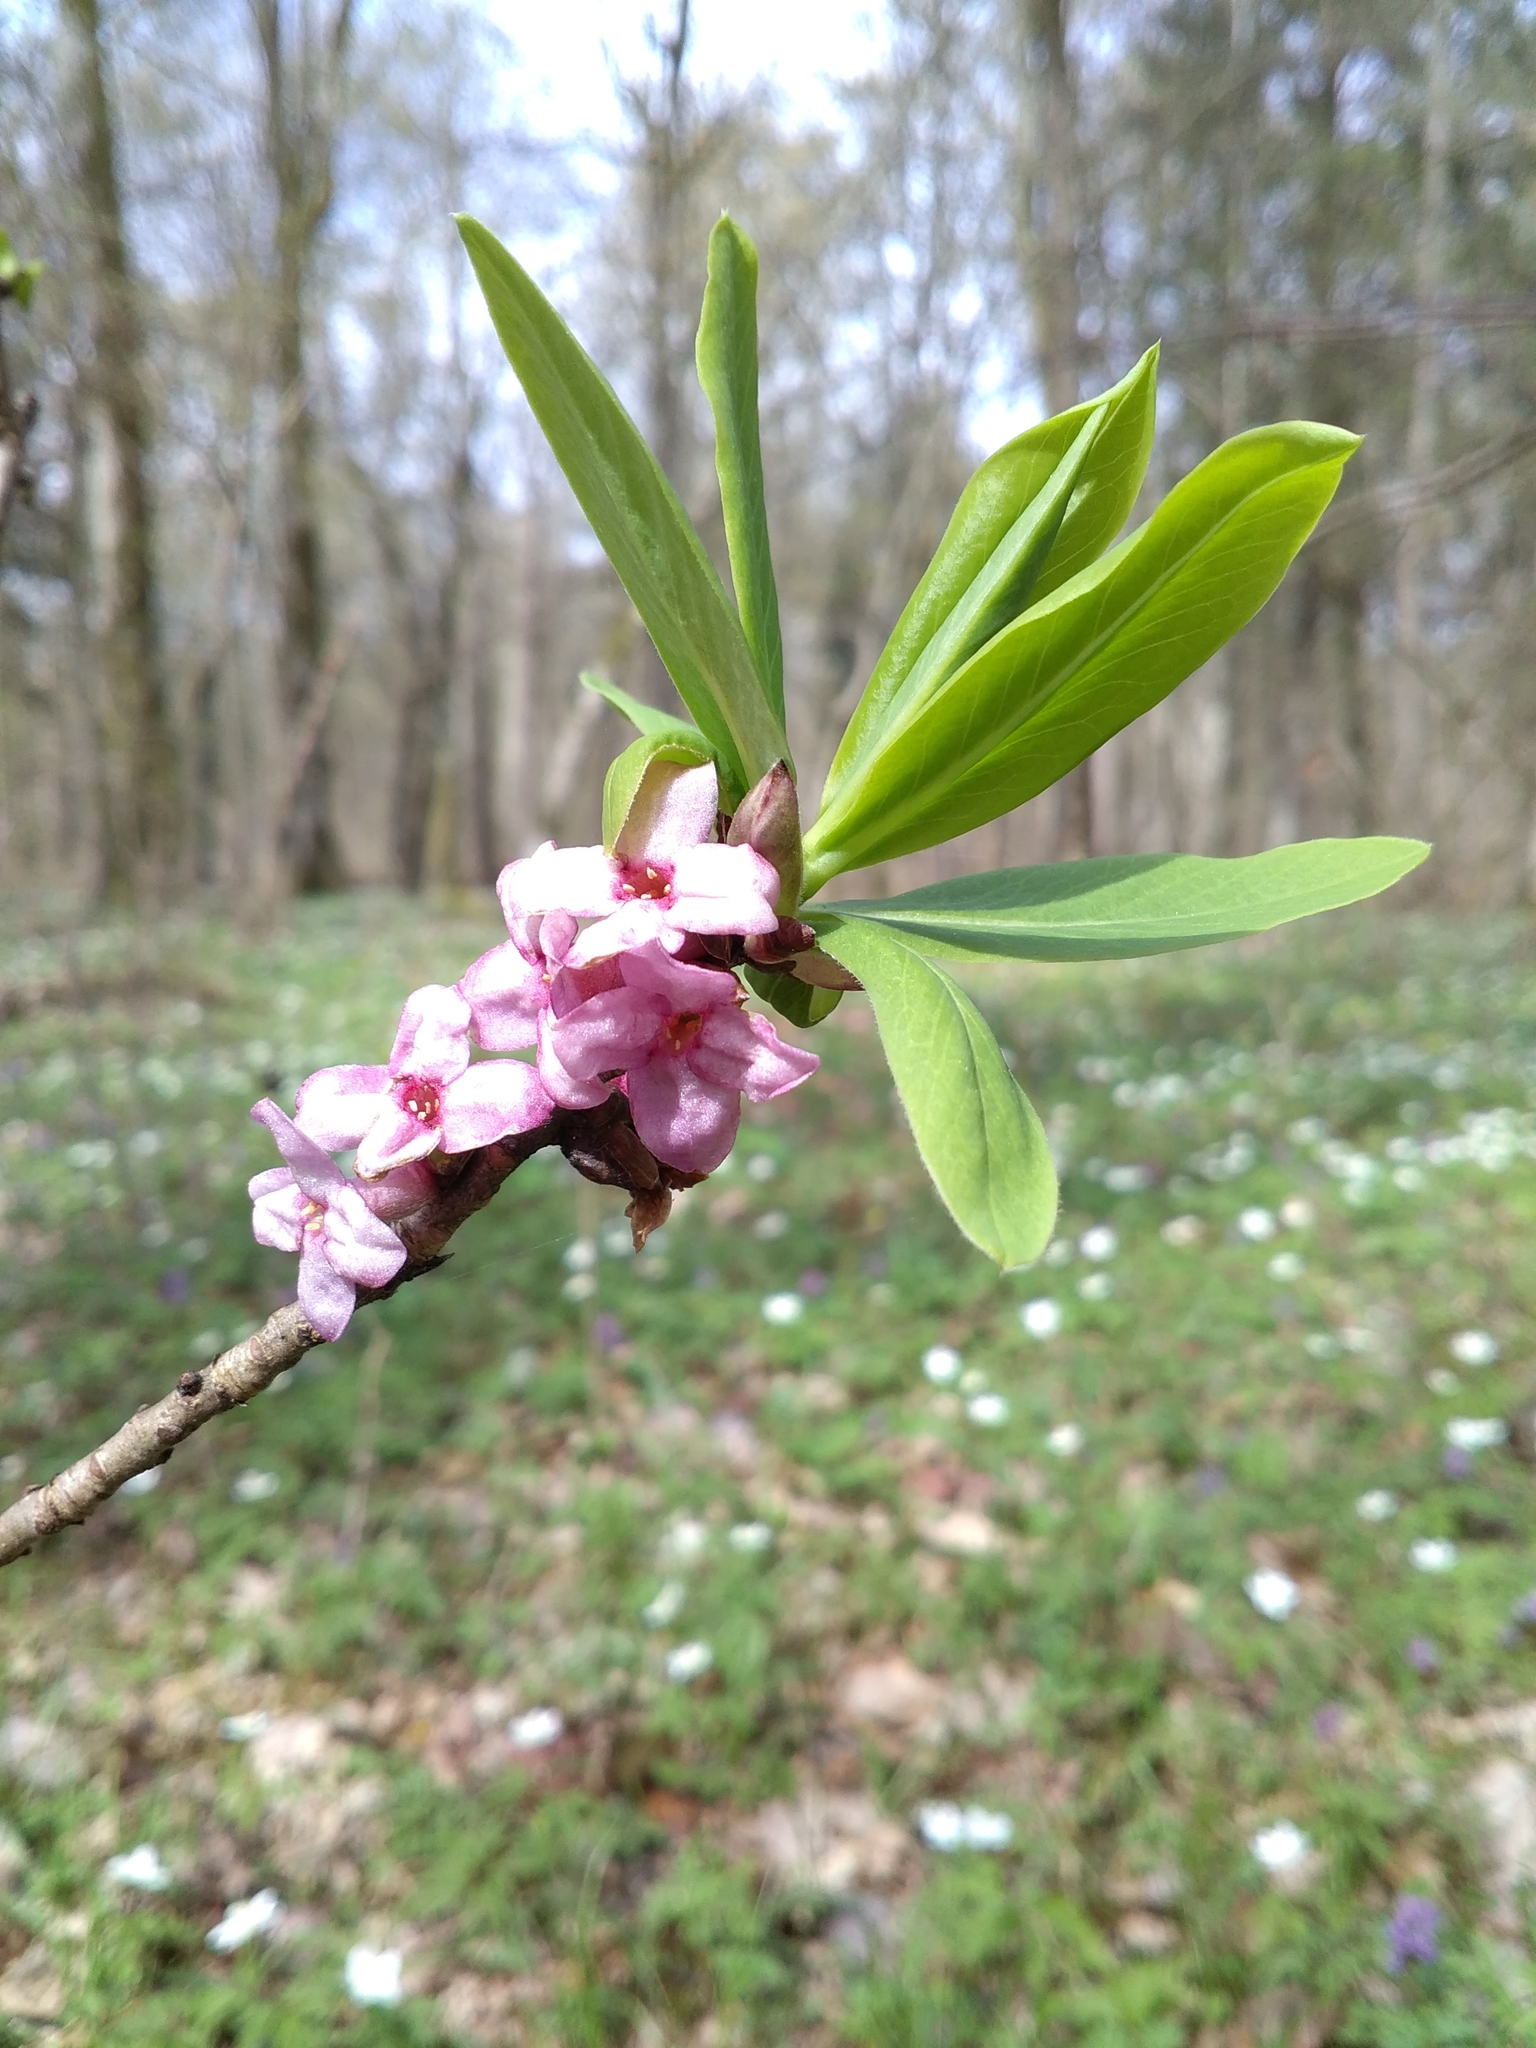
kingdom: Plantae
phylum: Tracheophyta
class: Magnoliopsida
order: Malvales
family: Thymelaeaceae
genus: Daphne
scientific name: Daphne mezereum
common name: Mezereon
